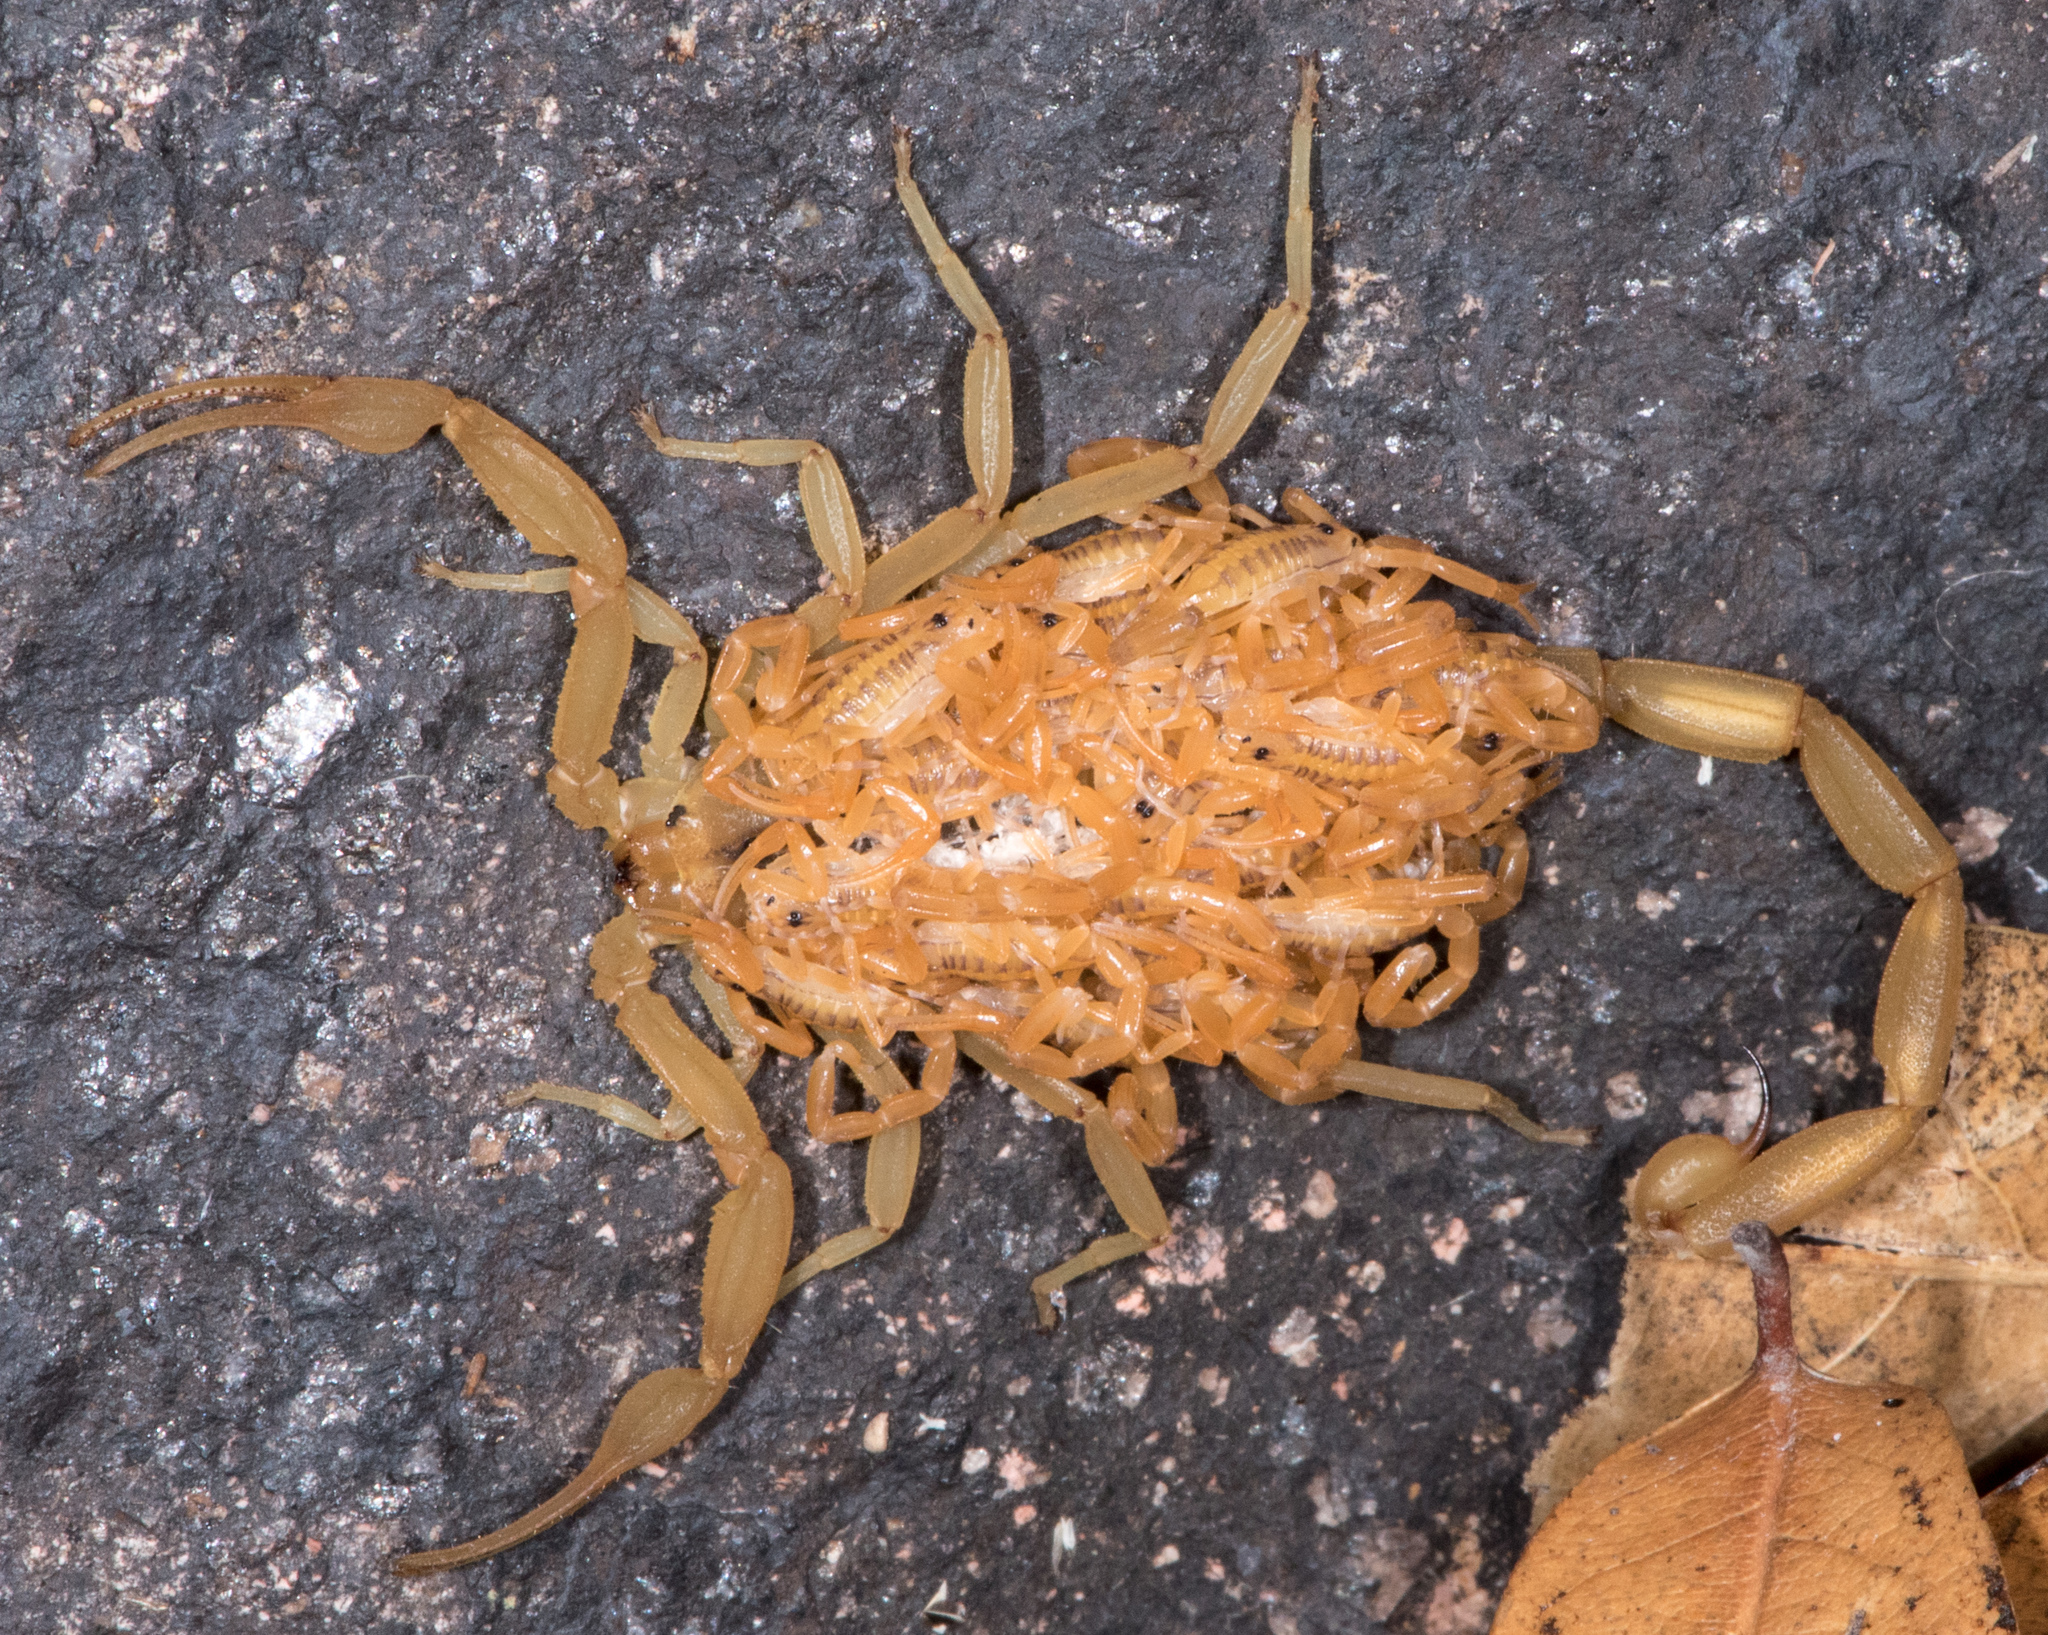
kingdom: Animalia
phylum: Arthropoda
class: Arachnida
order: Scorpiones
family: Buthidae
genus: Centruroides
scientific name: Centruroides sculpturatus
